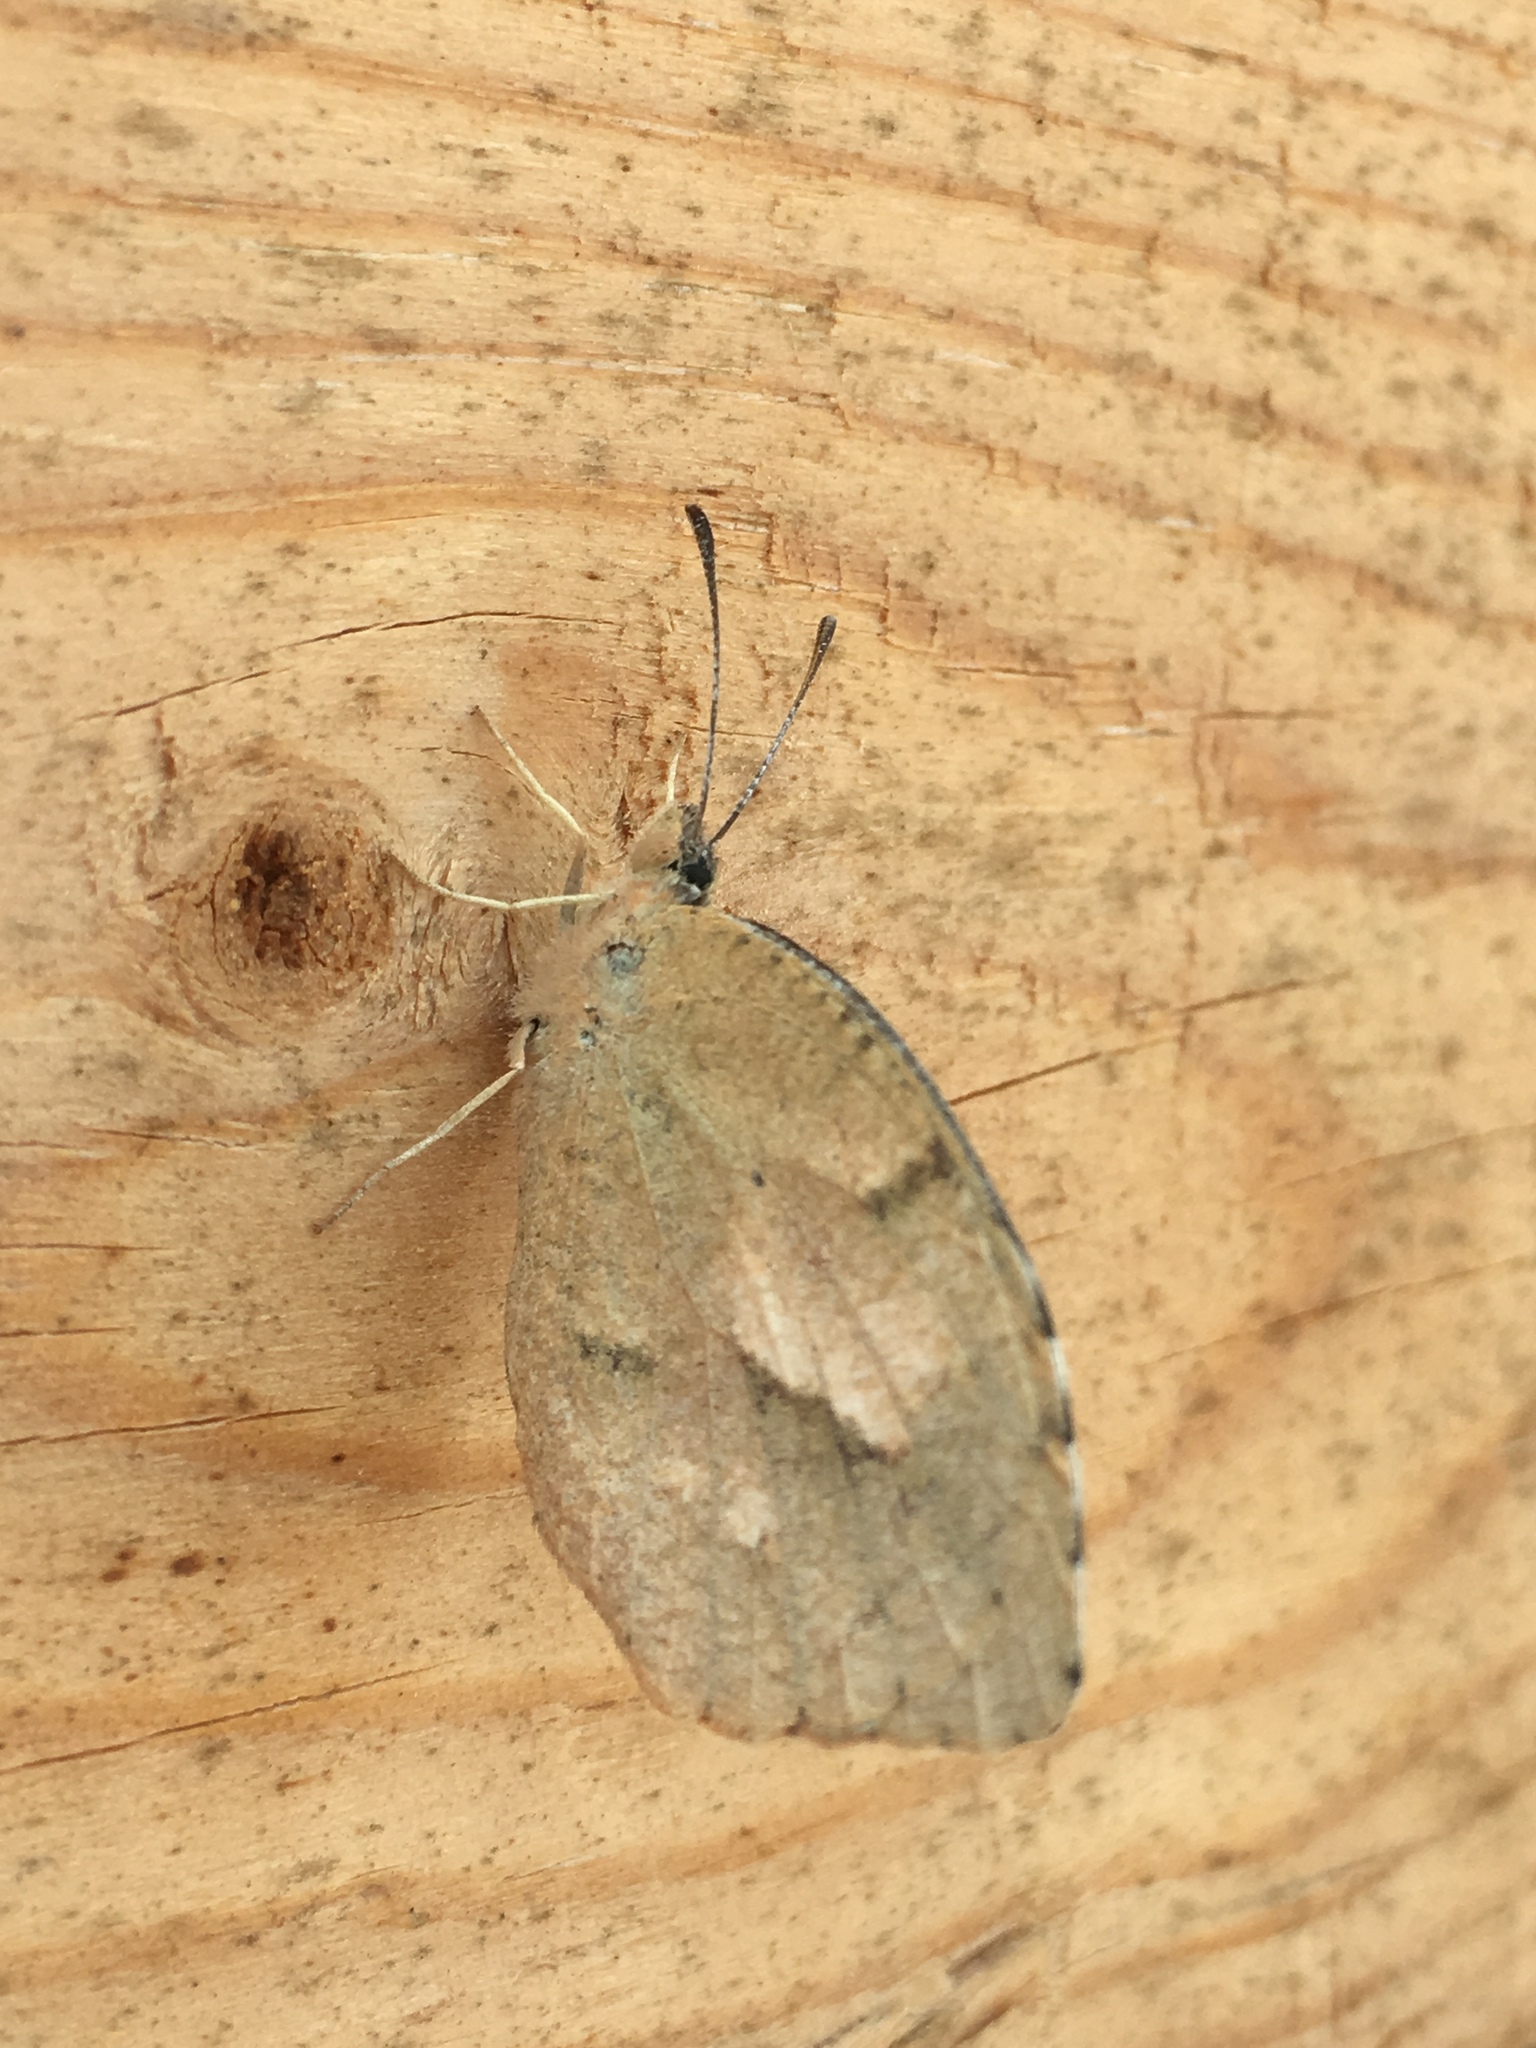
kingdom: Animalia
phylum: Arthropoda
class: Insecta
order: Lepidoptera
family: Pieridae
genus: Abaeis
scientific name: Abaeis nicippe
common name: Sleepy orange
